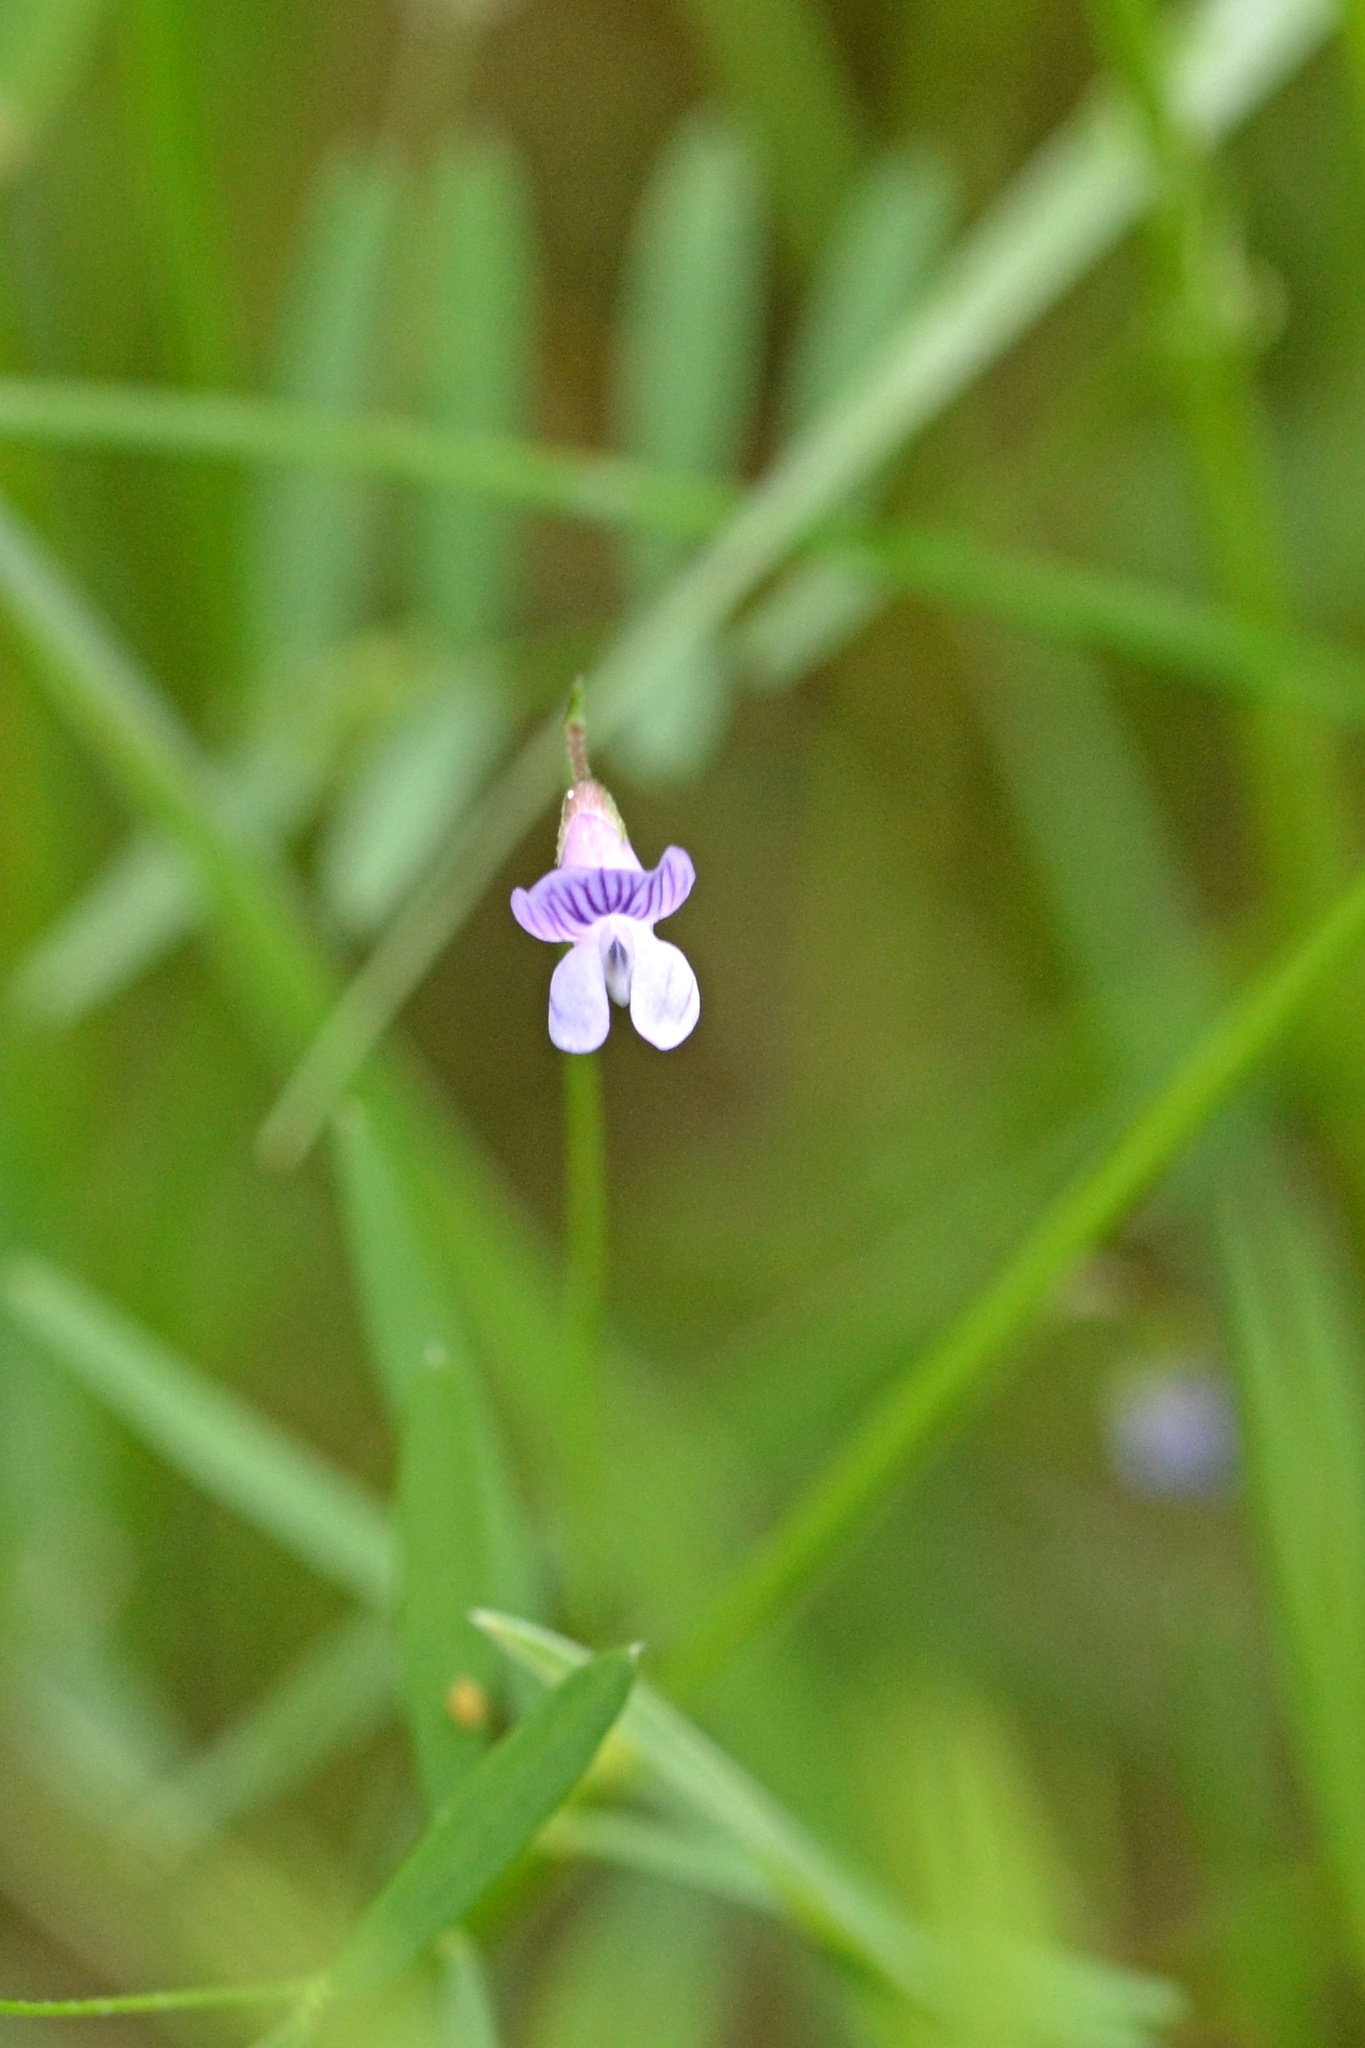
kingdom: Plantae
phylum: Tracheophyta
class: Magnoliopsida
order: Fabales
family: Fabaceae
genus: Vicia
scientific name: Vicia tetrasperma
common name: Smooth tare
